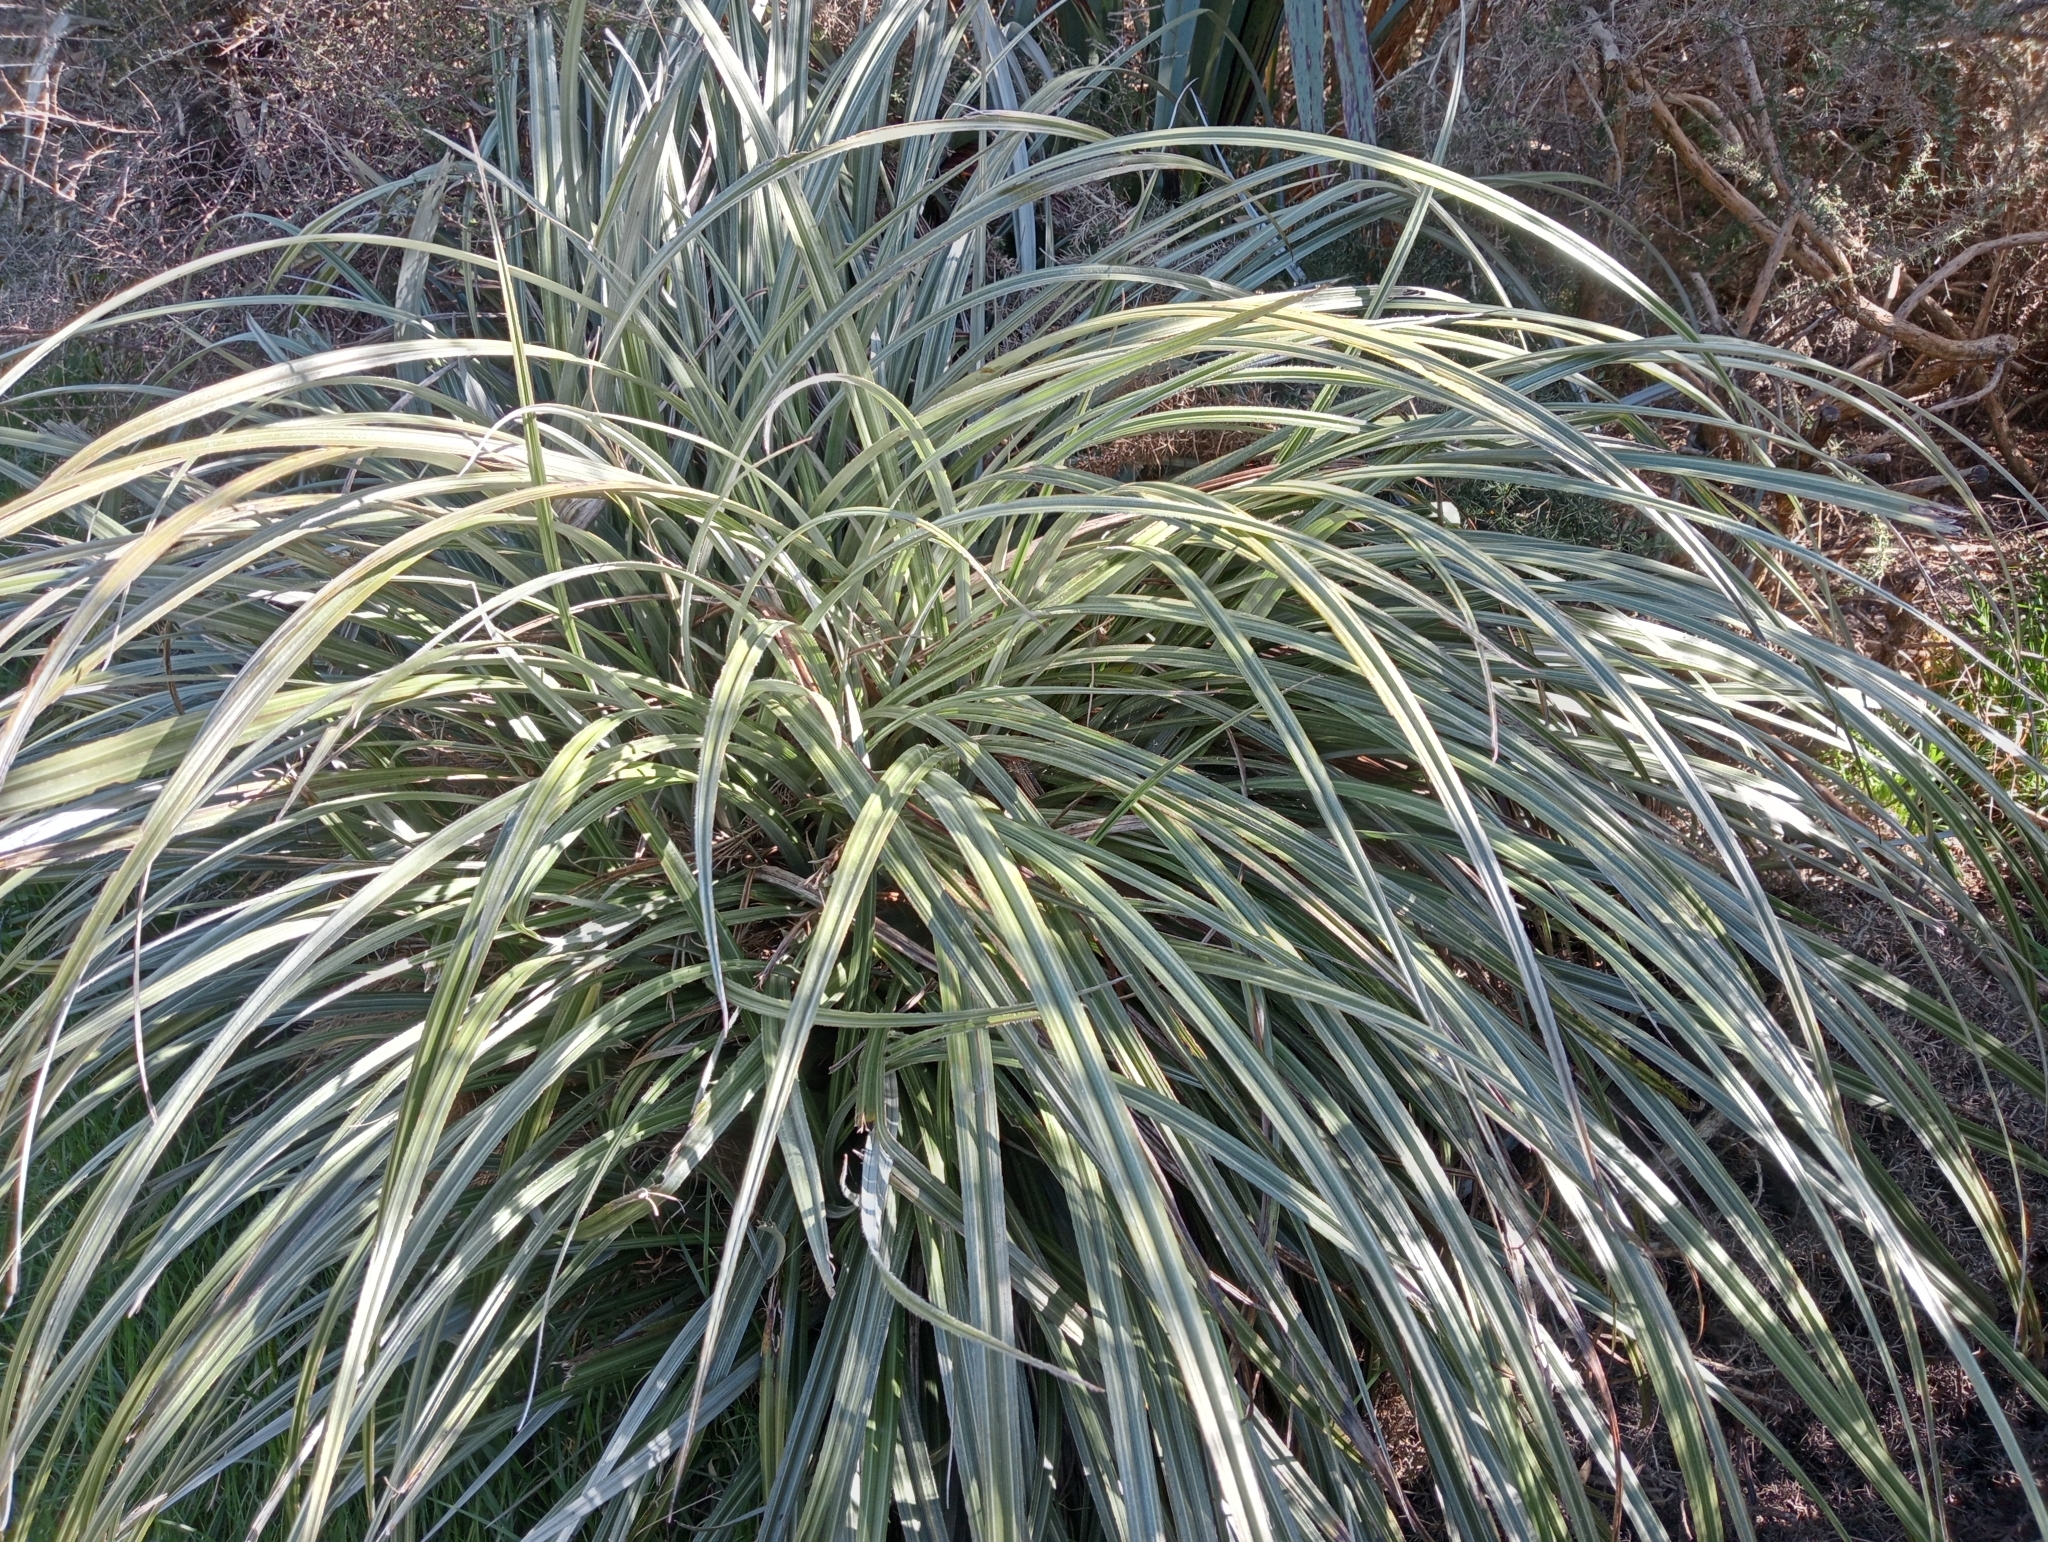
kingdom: Plantae
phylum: Tracheophyta
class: Liliopsida
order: Asparagales
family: Asteliaceae
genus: Astelia
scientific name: Astelia nervosa
